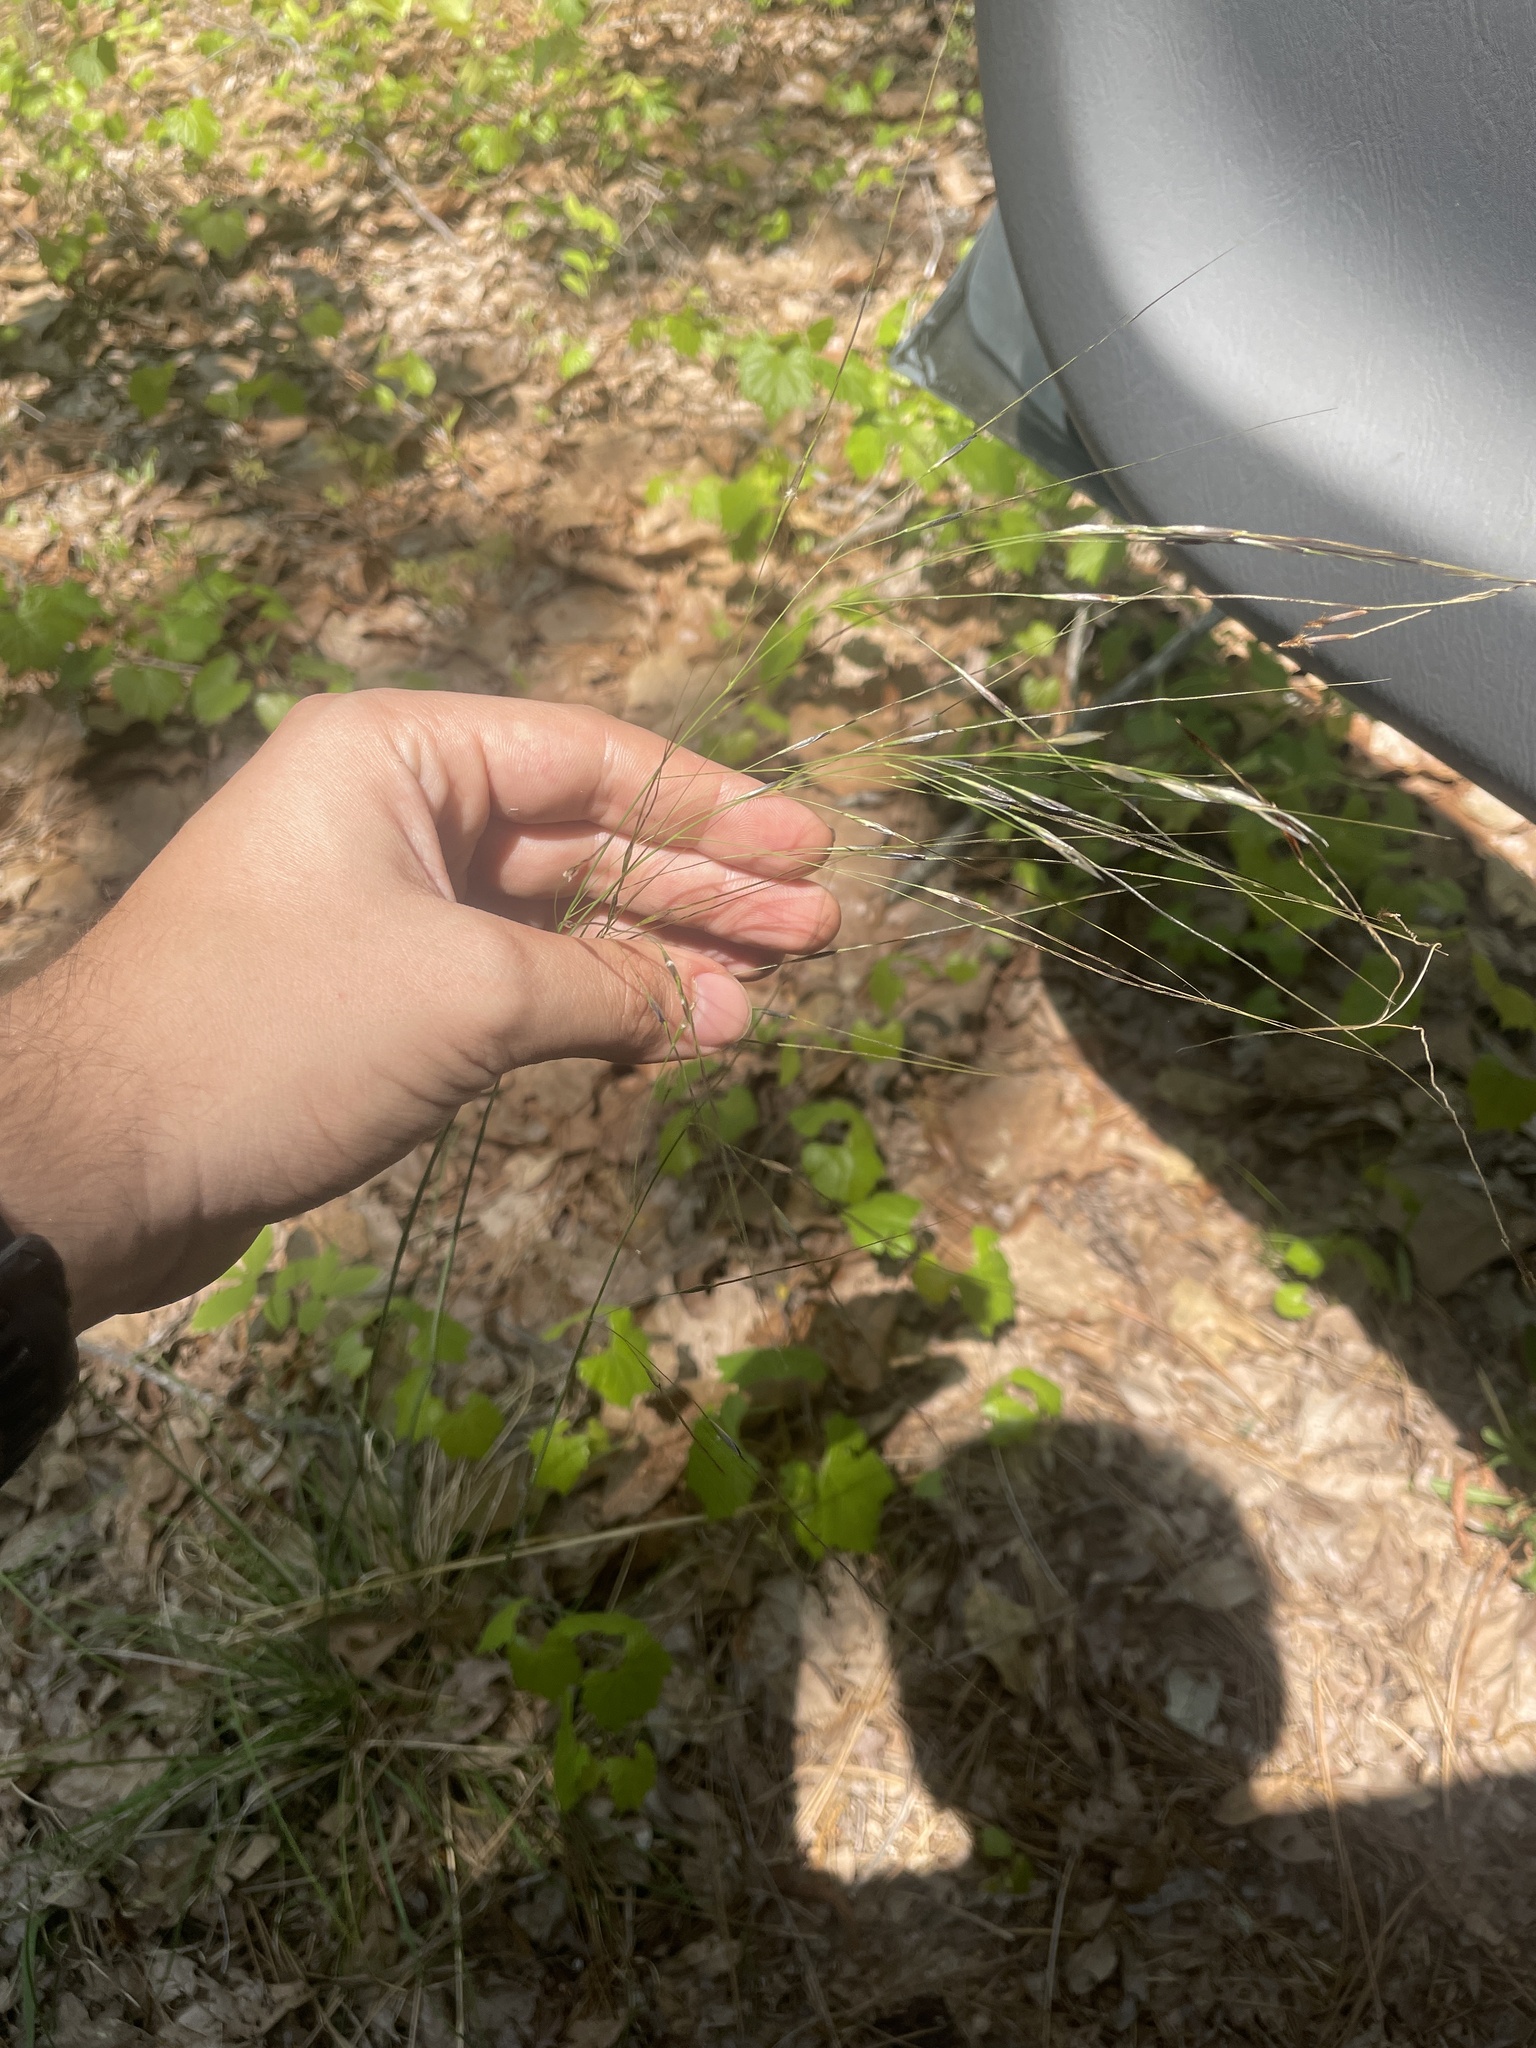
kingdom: Plantae
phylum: Tracheophyta
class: Liliopsida
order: Poales
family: Poaceae
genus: Piptochaetium
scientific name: Piptochaetium avenaceum
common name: Black bunchgrass
